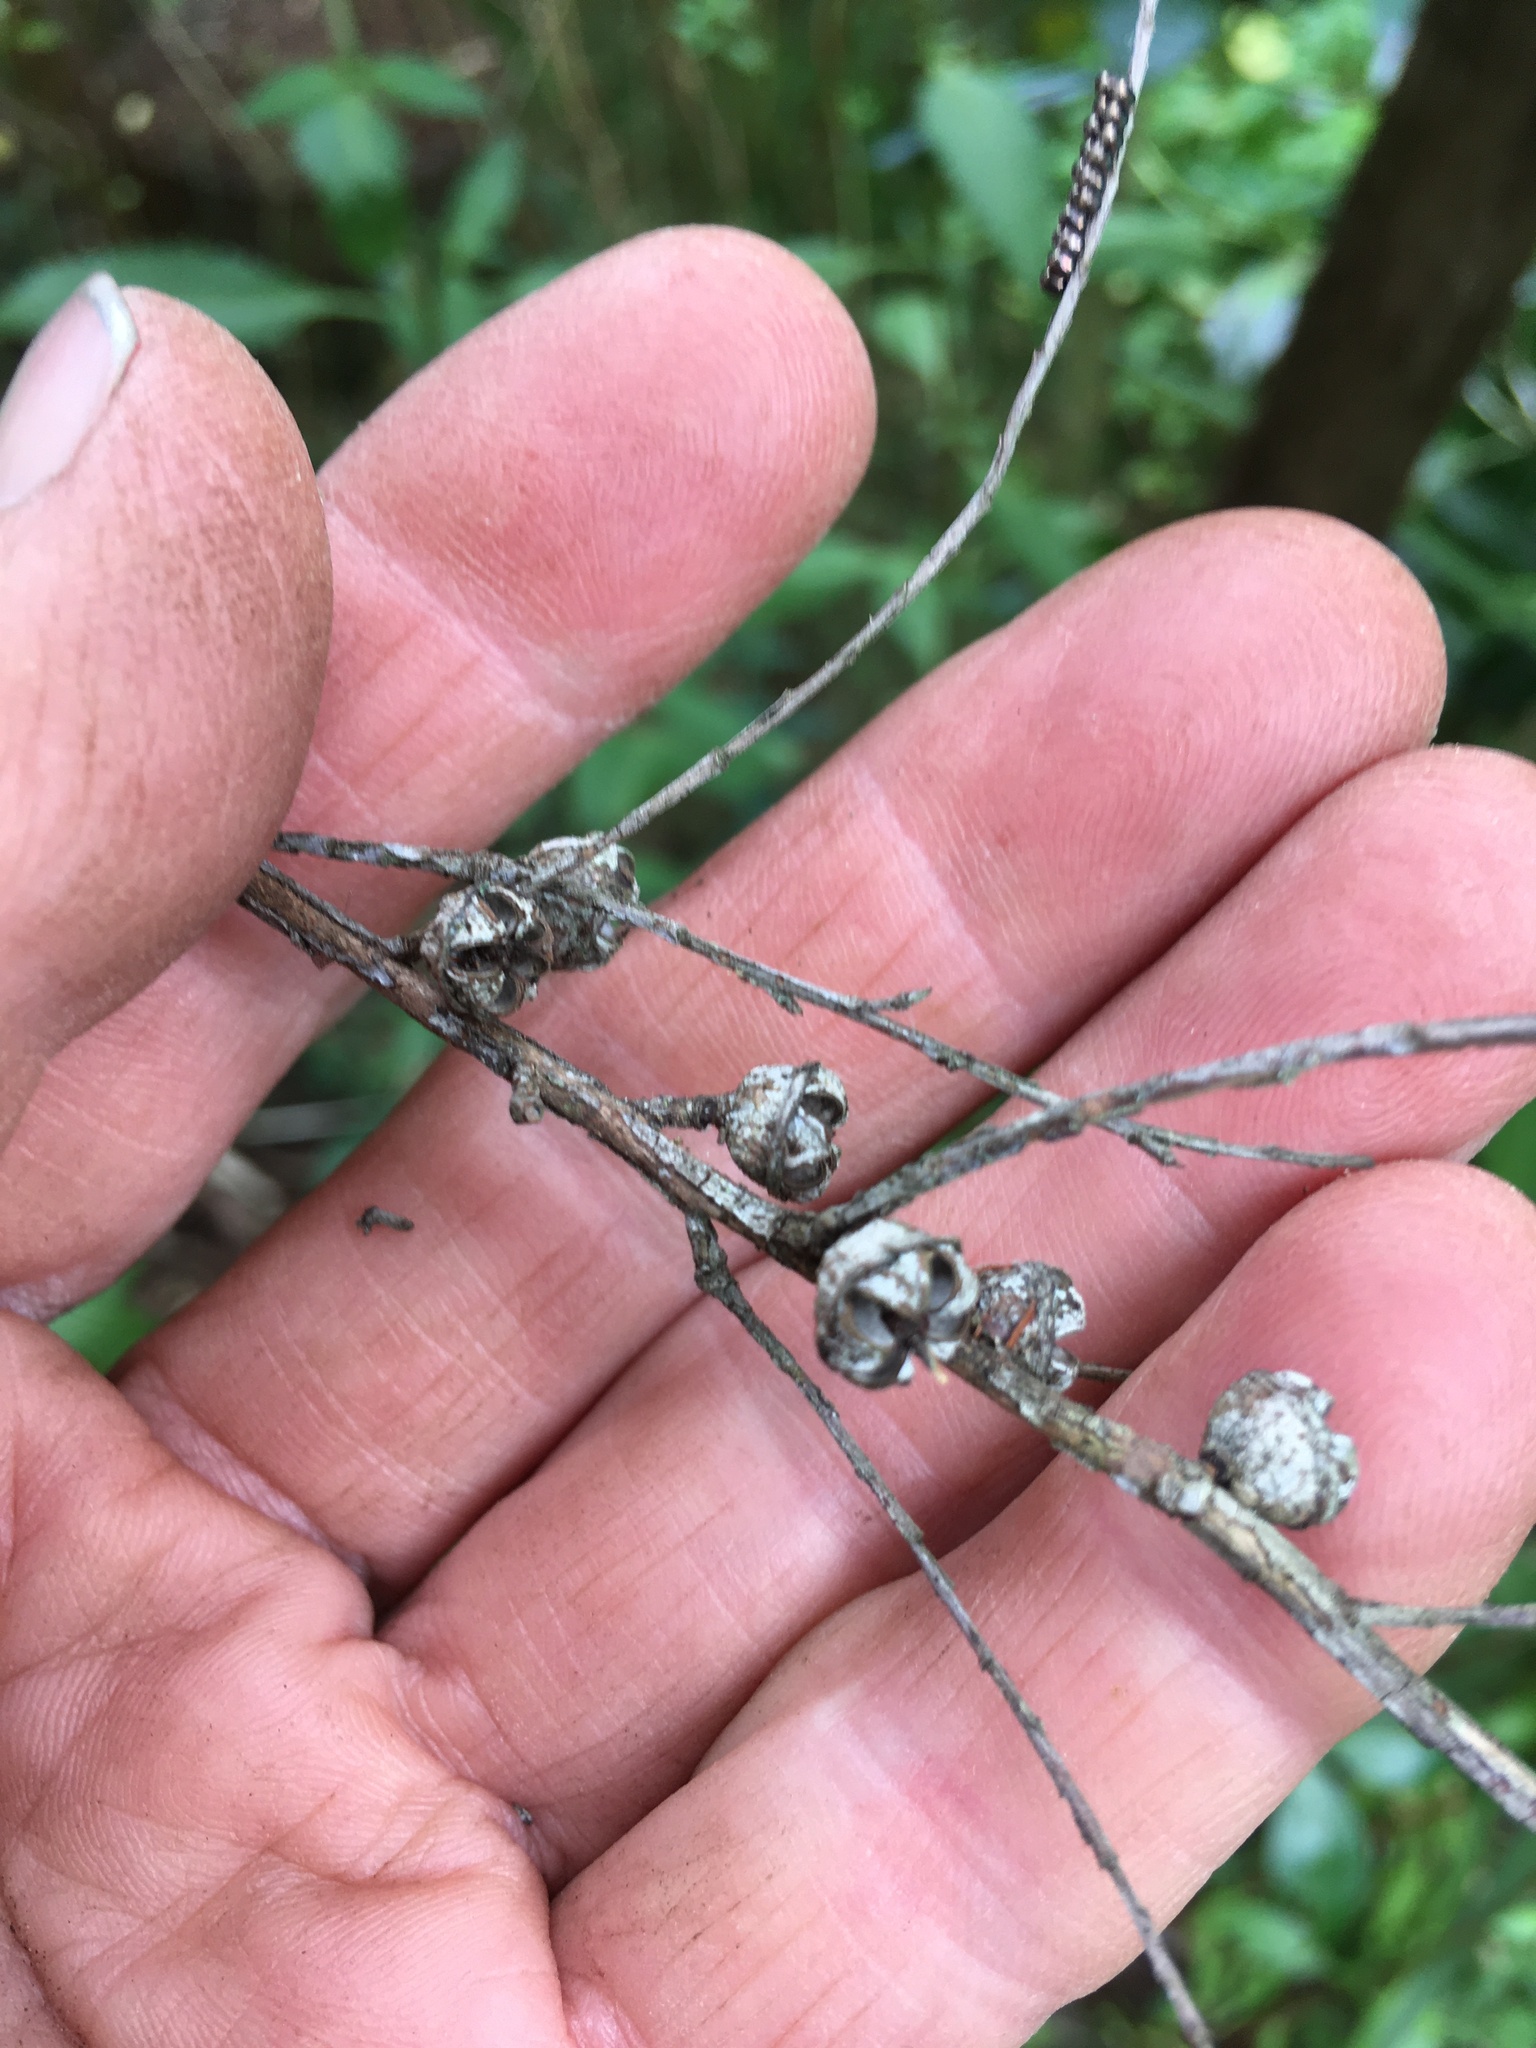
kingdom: Plantae
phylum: Tracheophyta
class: Magnoliopsida
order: Myrtales
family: Myrtaceae
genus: Leptospermum
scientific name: Leptospermum scoparium
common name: Broom tea-tree
